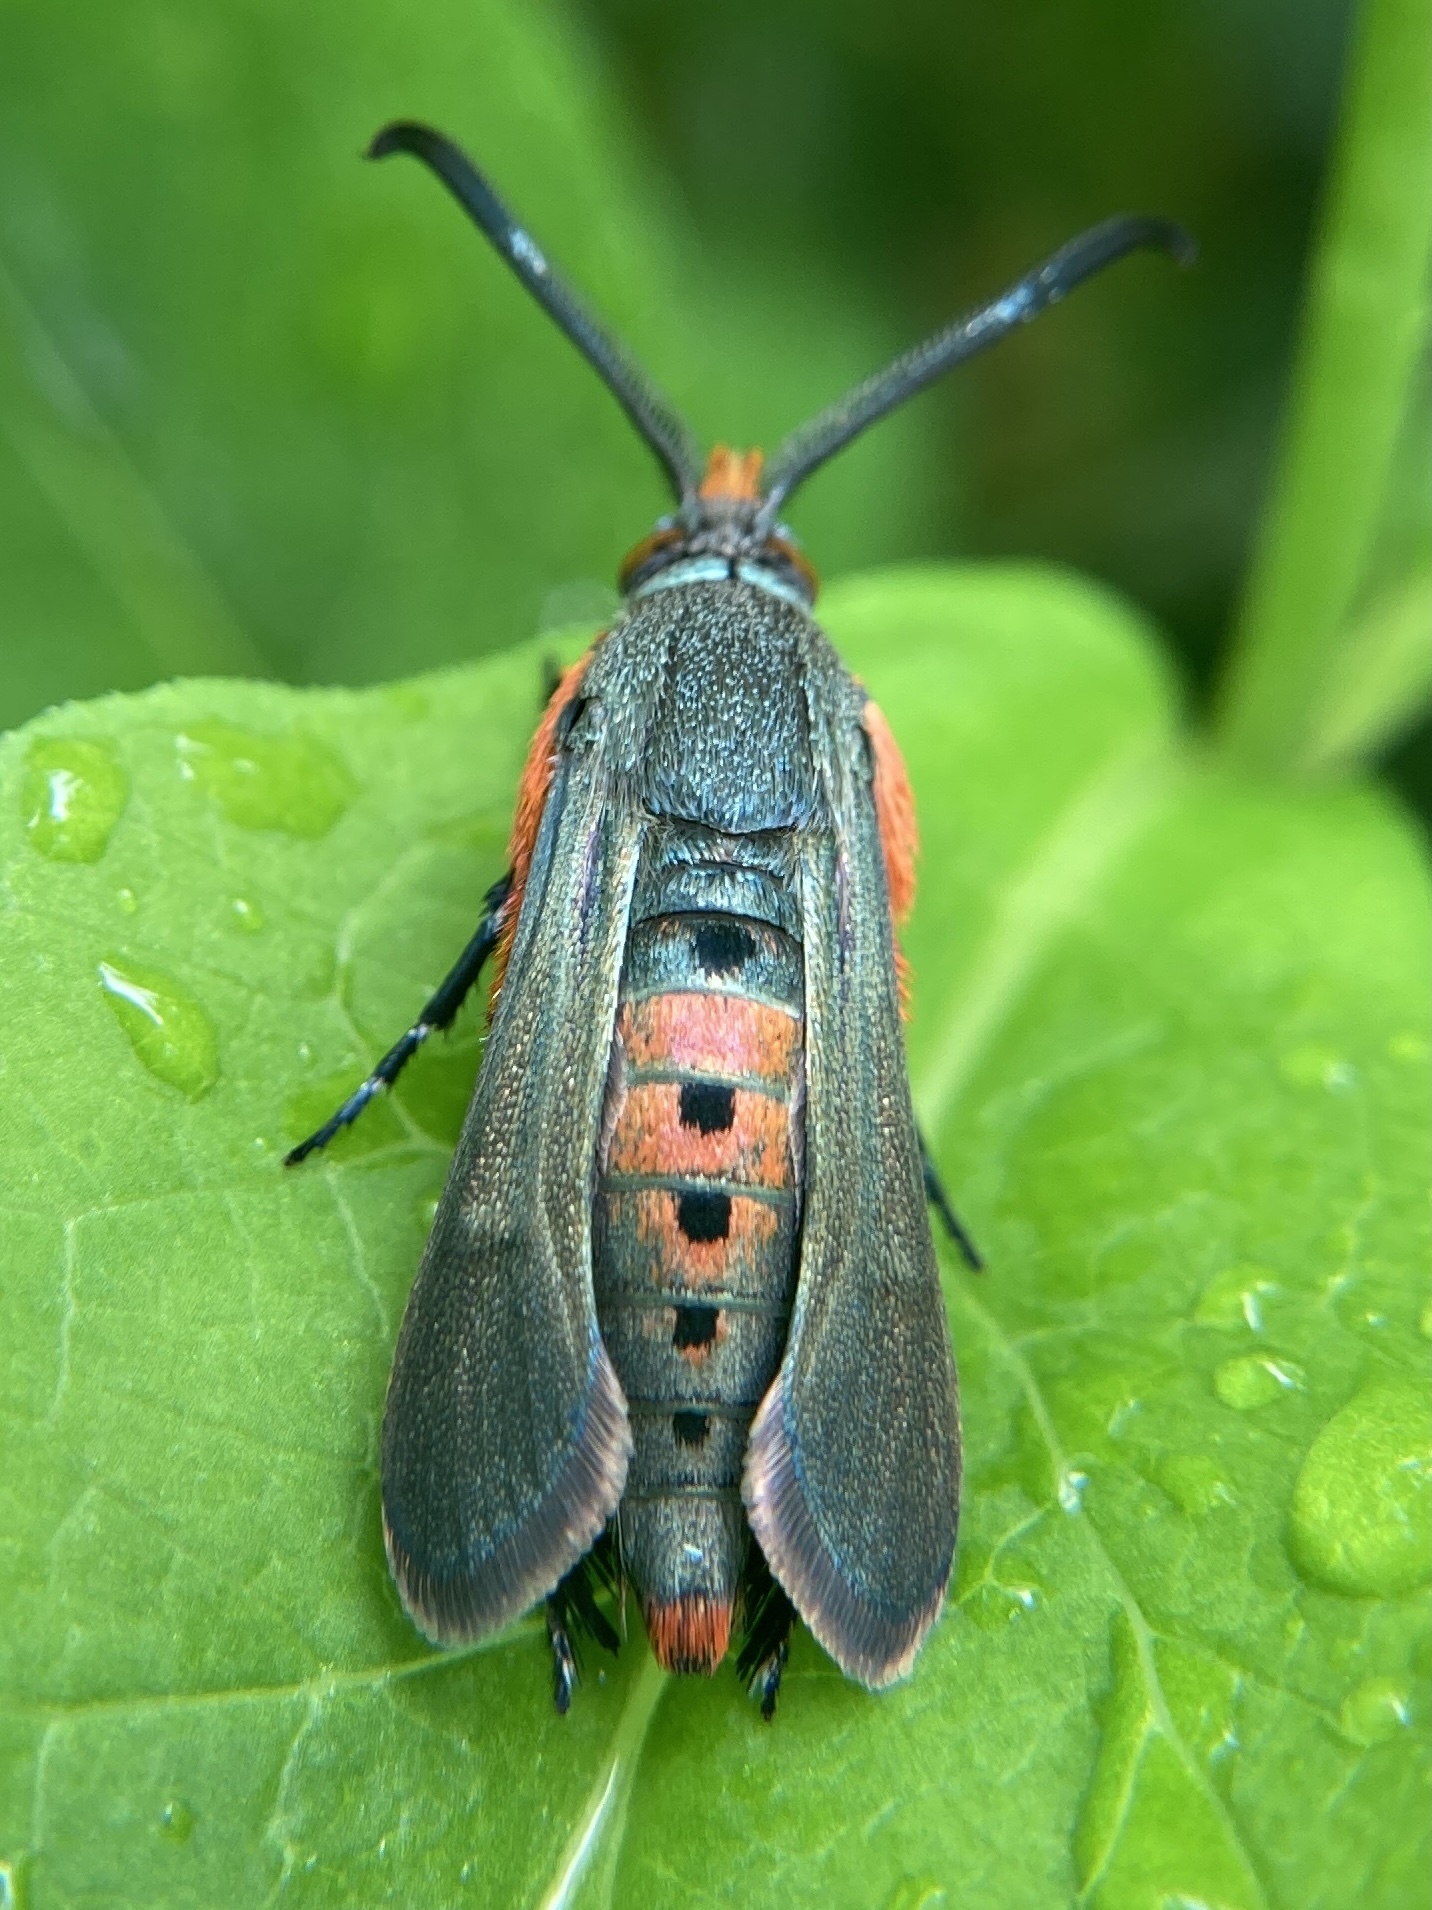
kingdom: Animalia
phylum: Arthropoda
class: Insecta
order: Lepidoptera
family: Sesiidae
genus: Eichlinia
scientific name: Eichlinia cucurbitae
